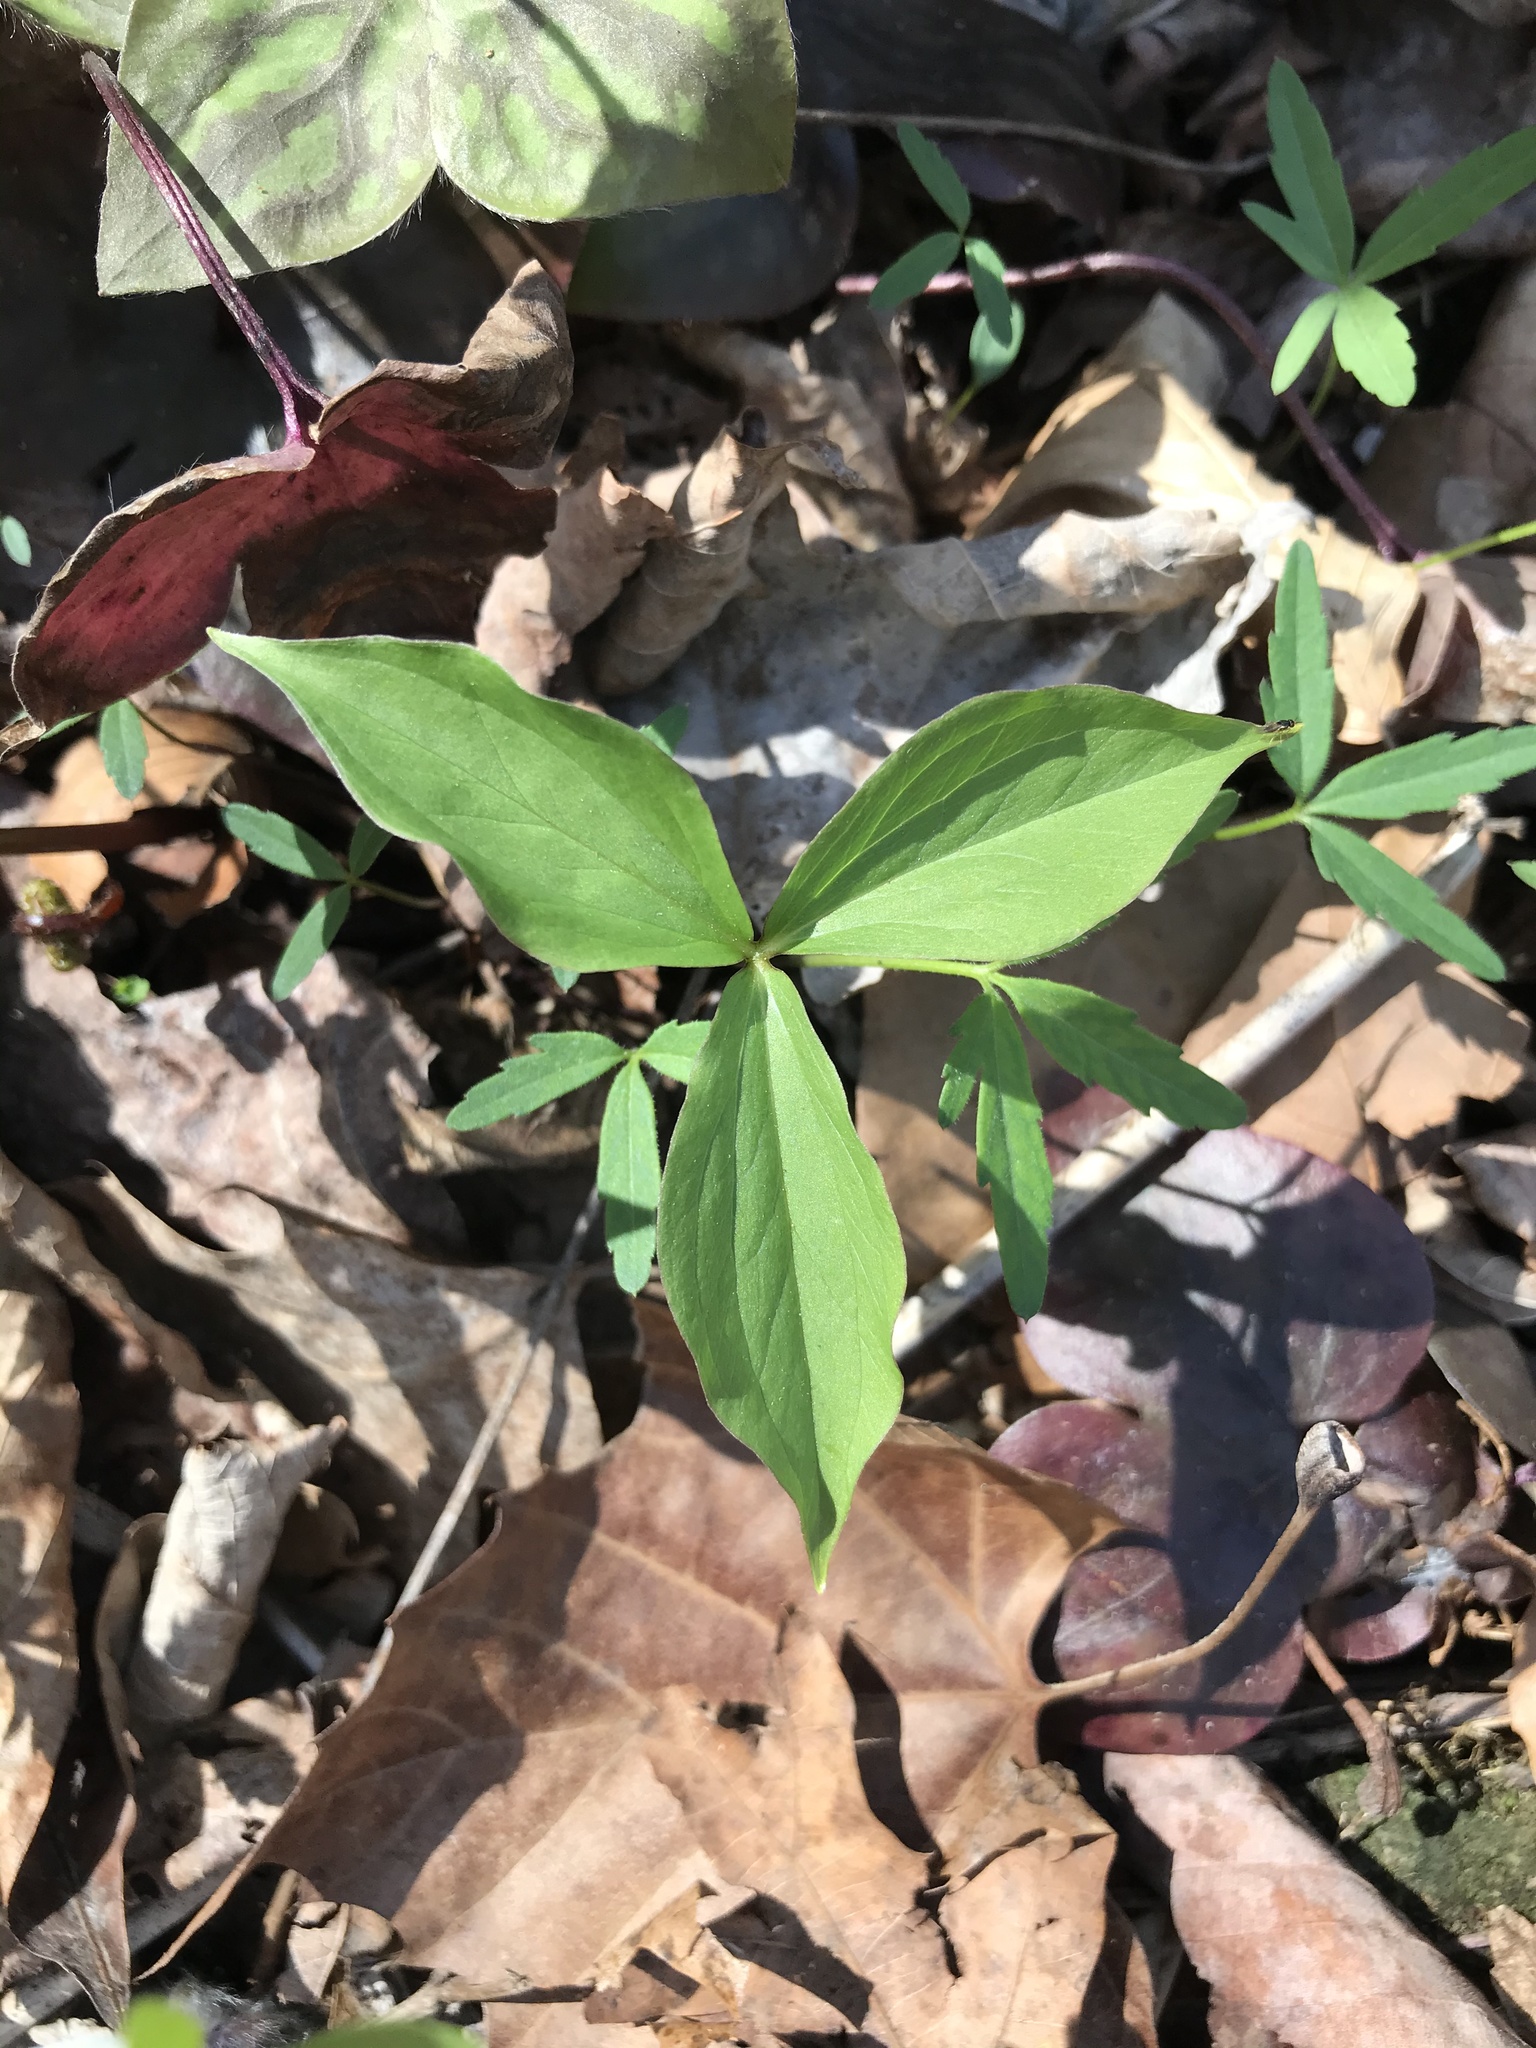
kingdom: Plantae
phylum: Tracheophyta
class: Liliopsida
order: Liliales
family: Melanthiaceae
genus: Trillium
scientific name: Trillium grandiflorum
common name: Great white trillium
